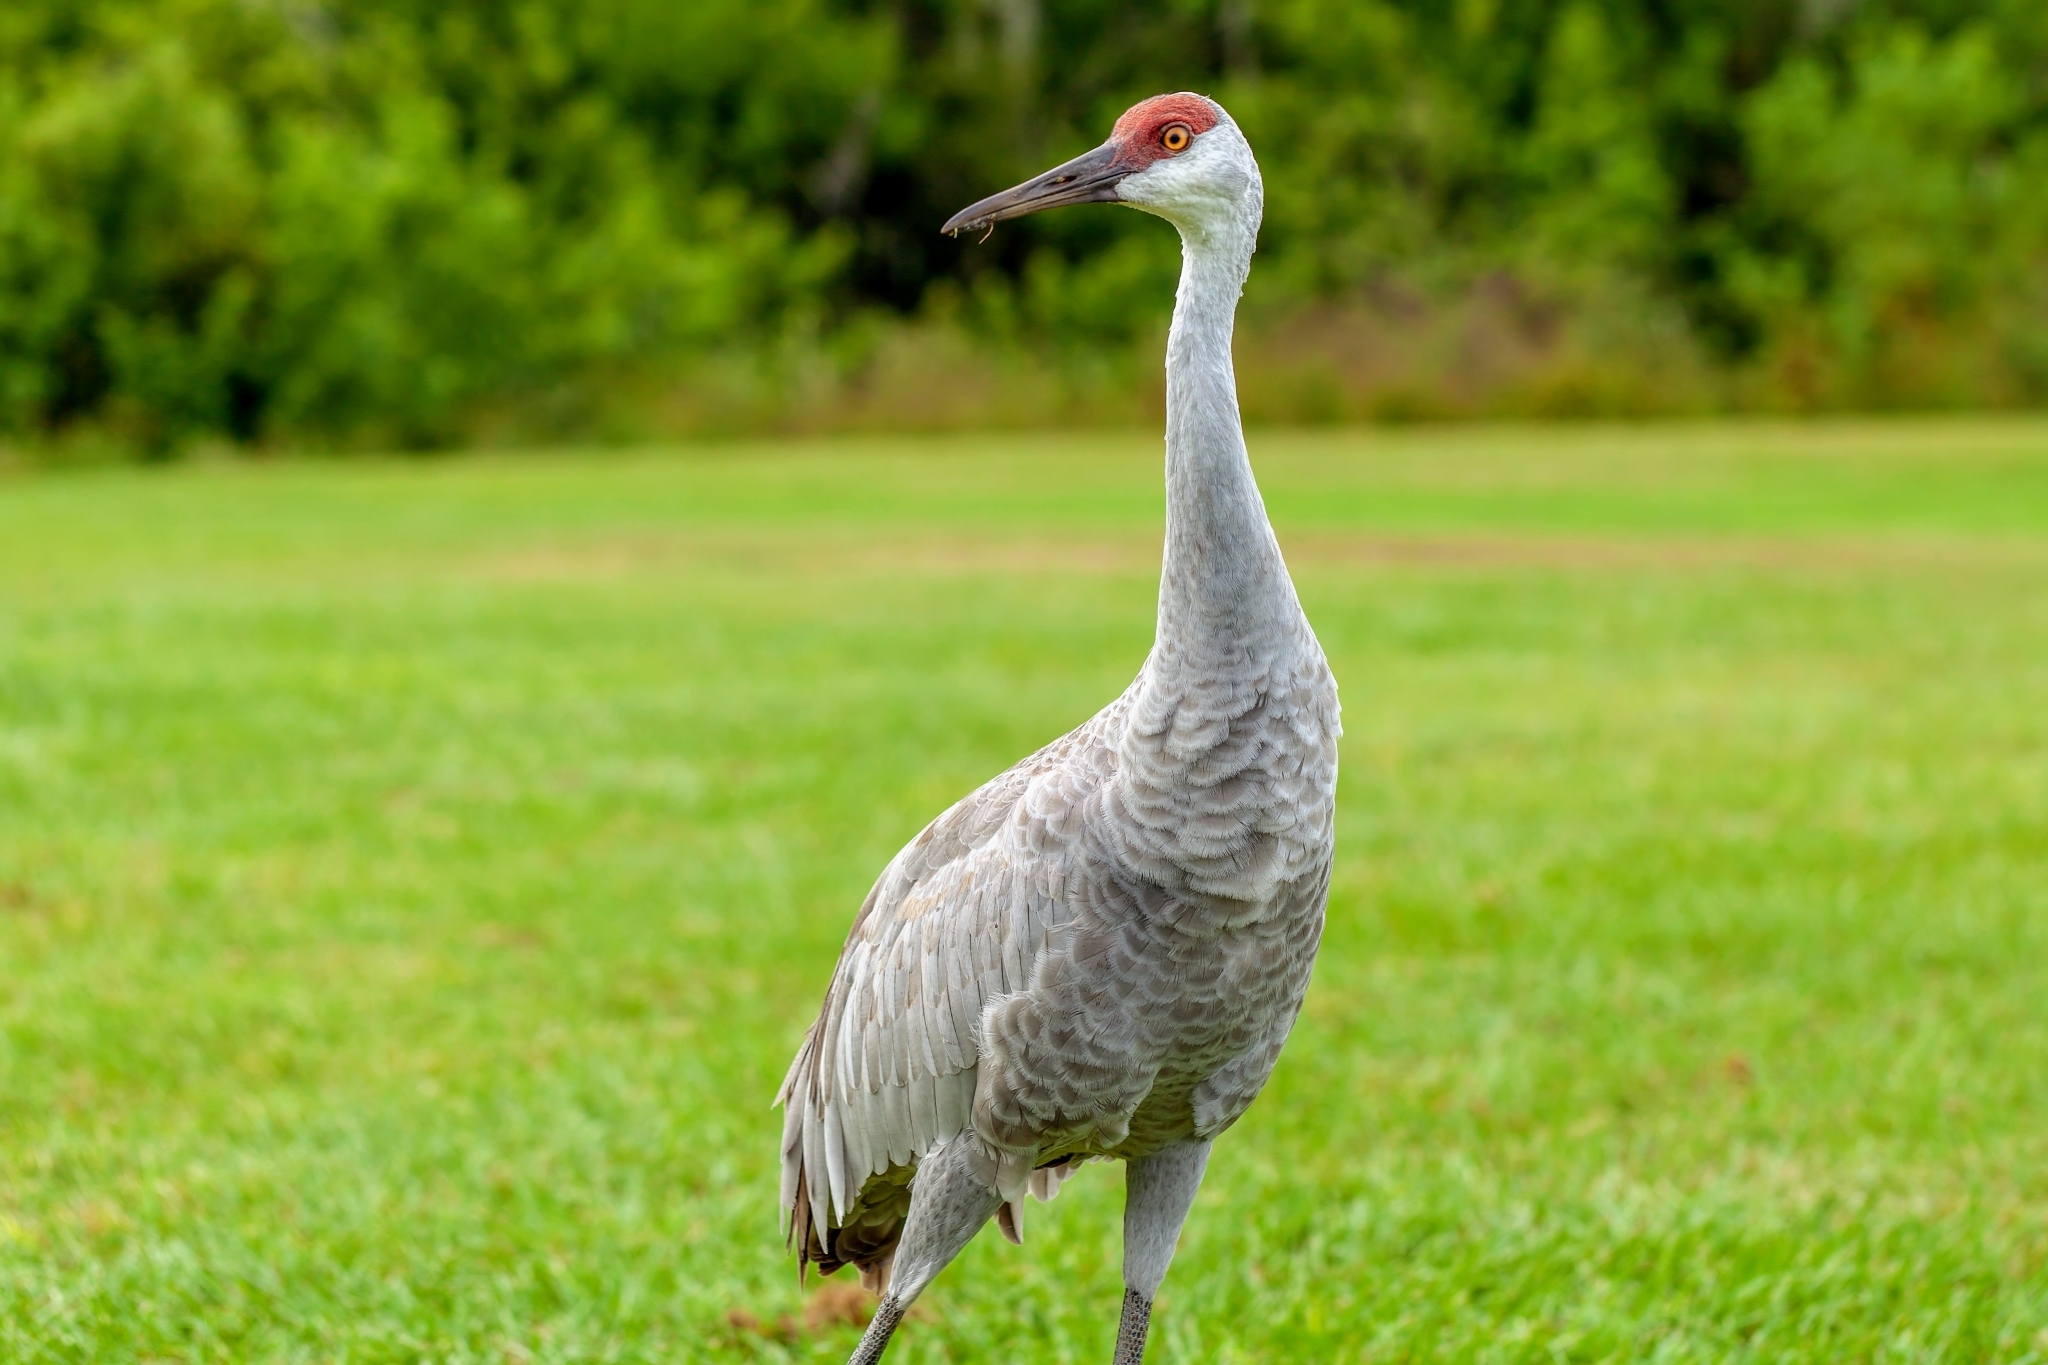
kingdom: Animalia
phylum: Chordata
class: Aves
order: Gruiformes
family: Gruidae
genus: Grus
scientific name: Grus canadensis
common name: Sandhill crane
